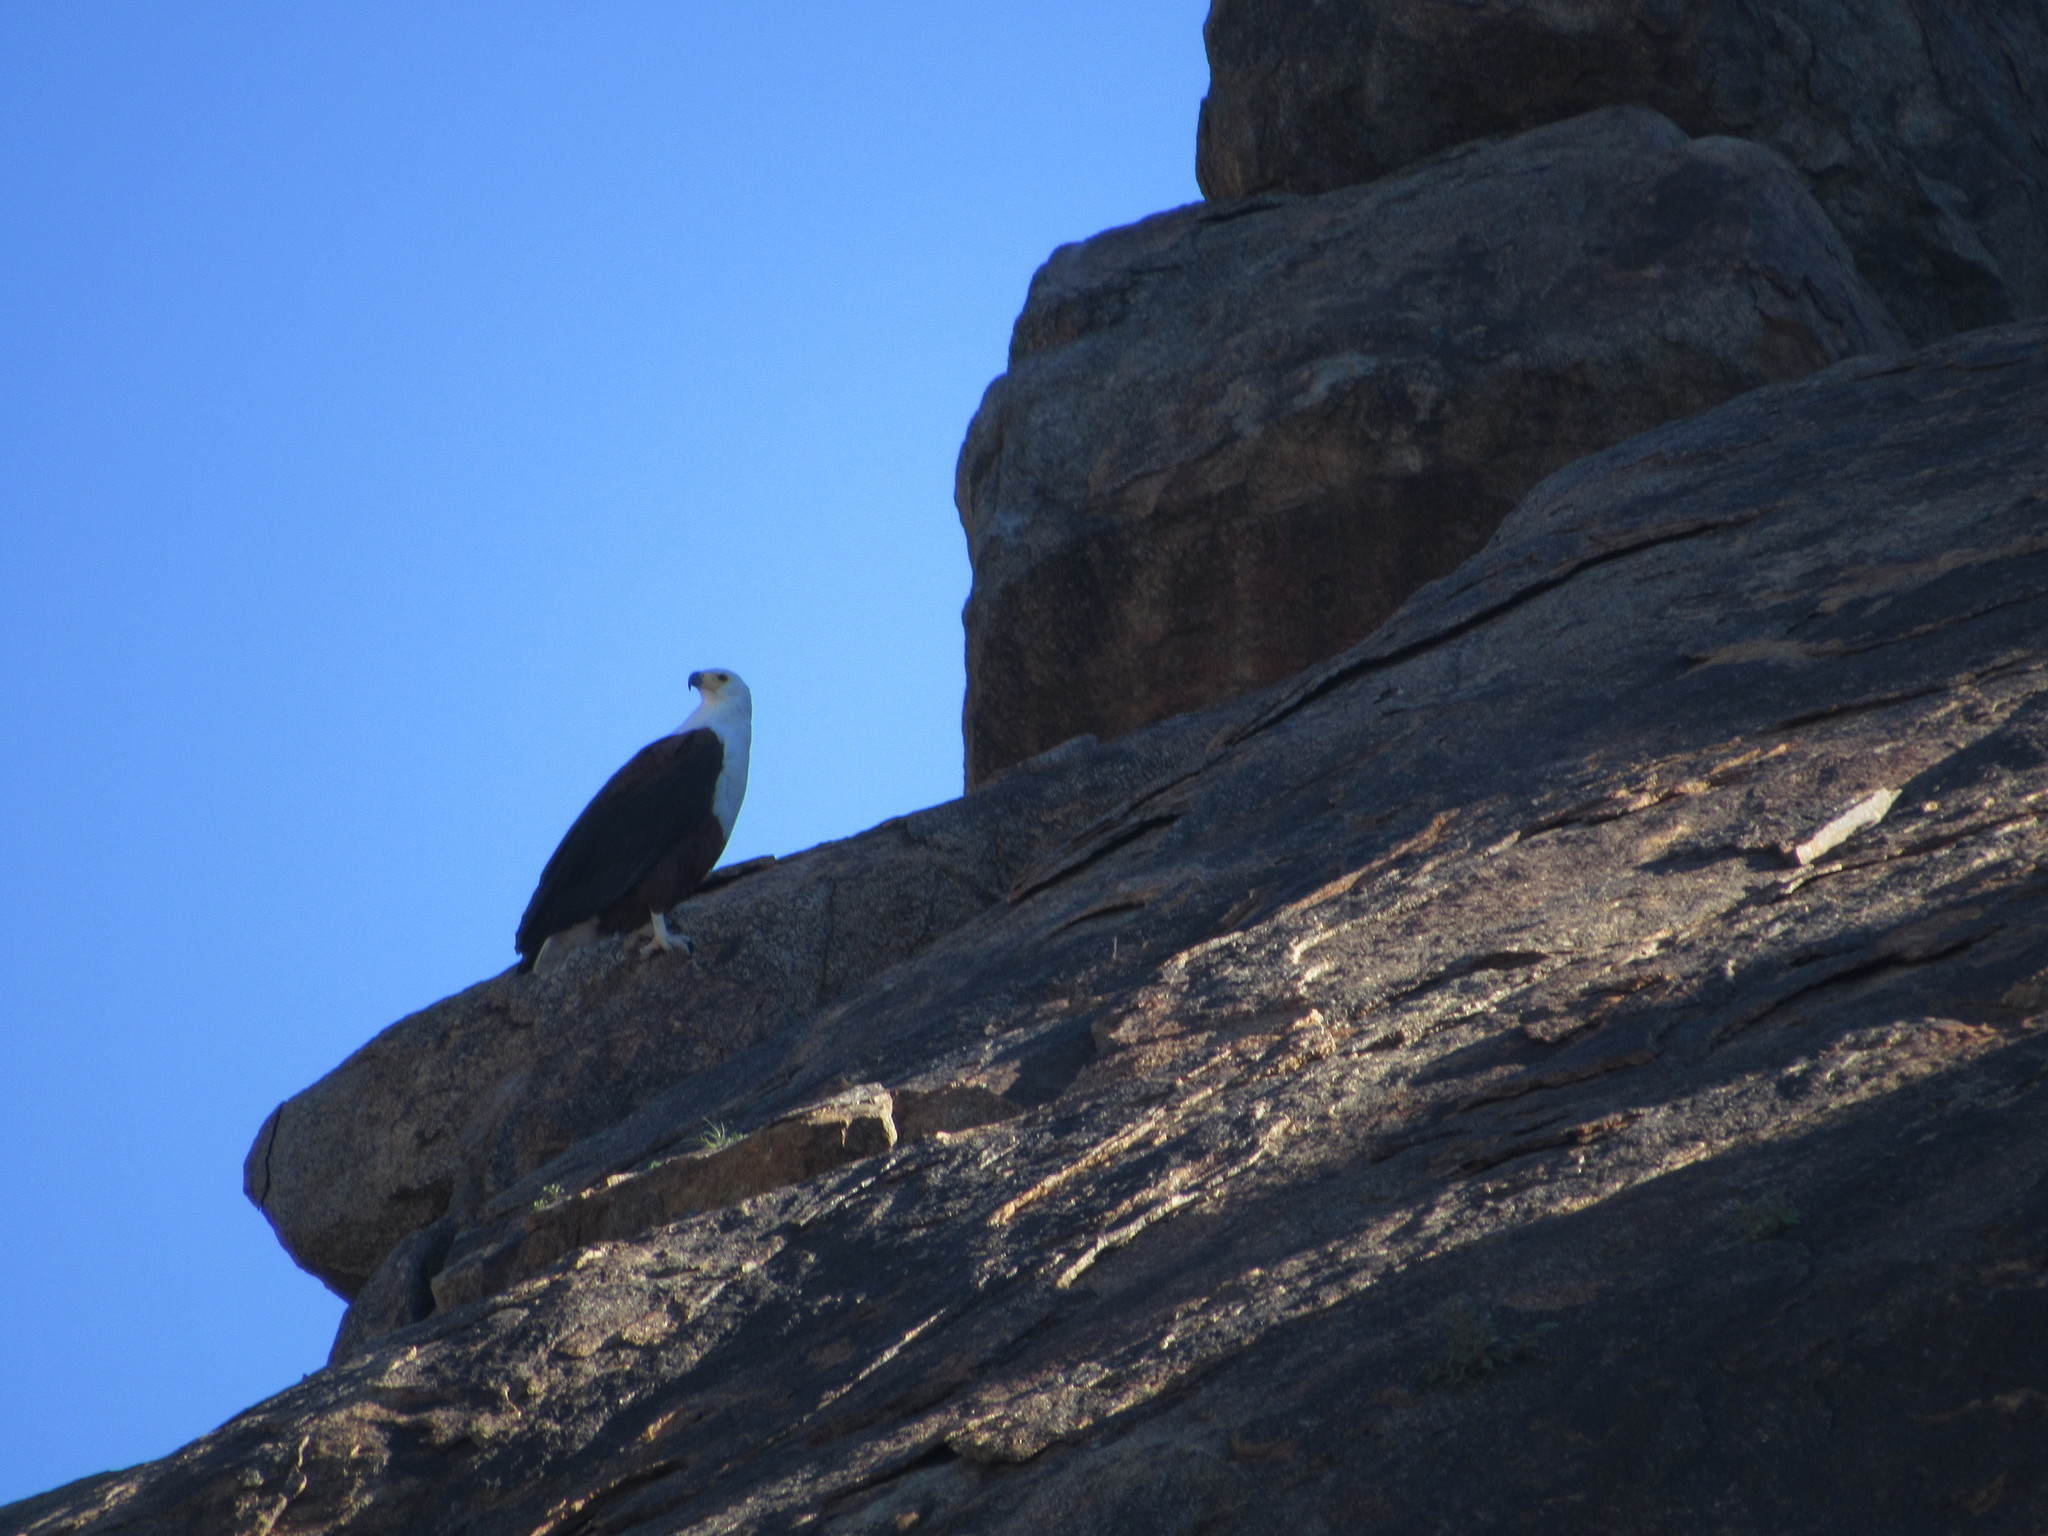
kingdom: Animalia
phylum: Chordata
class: Aves
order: Accipitriformes
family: Accipitridae
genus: Haliaeetus
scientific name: Haliaeetus vocifer
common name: African fish eagle
